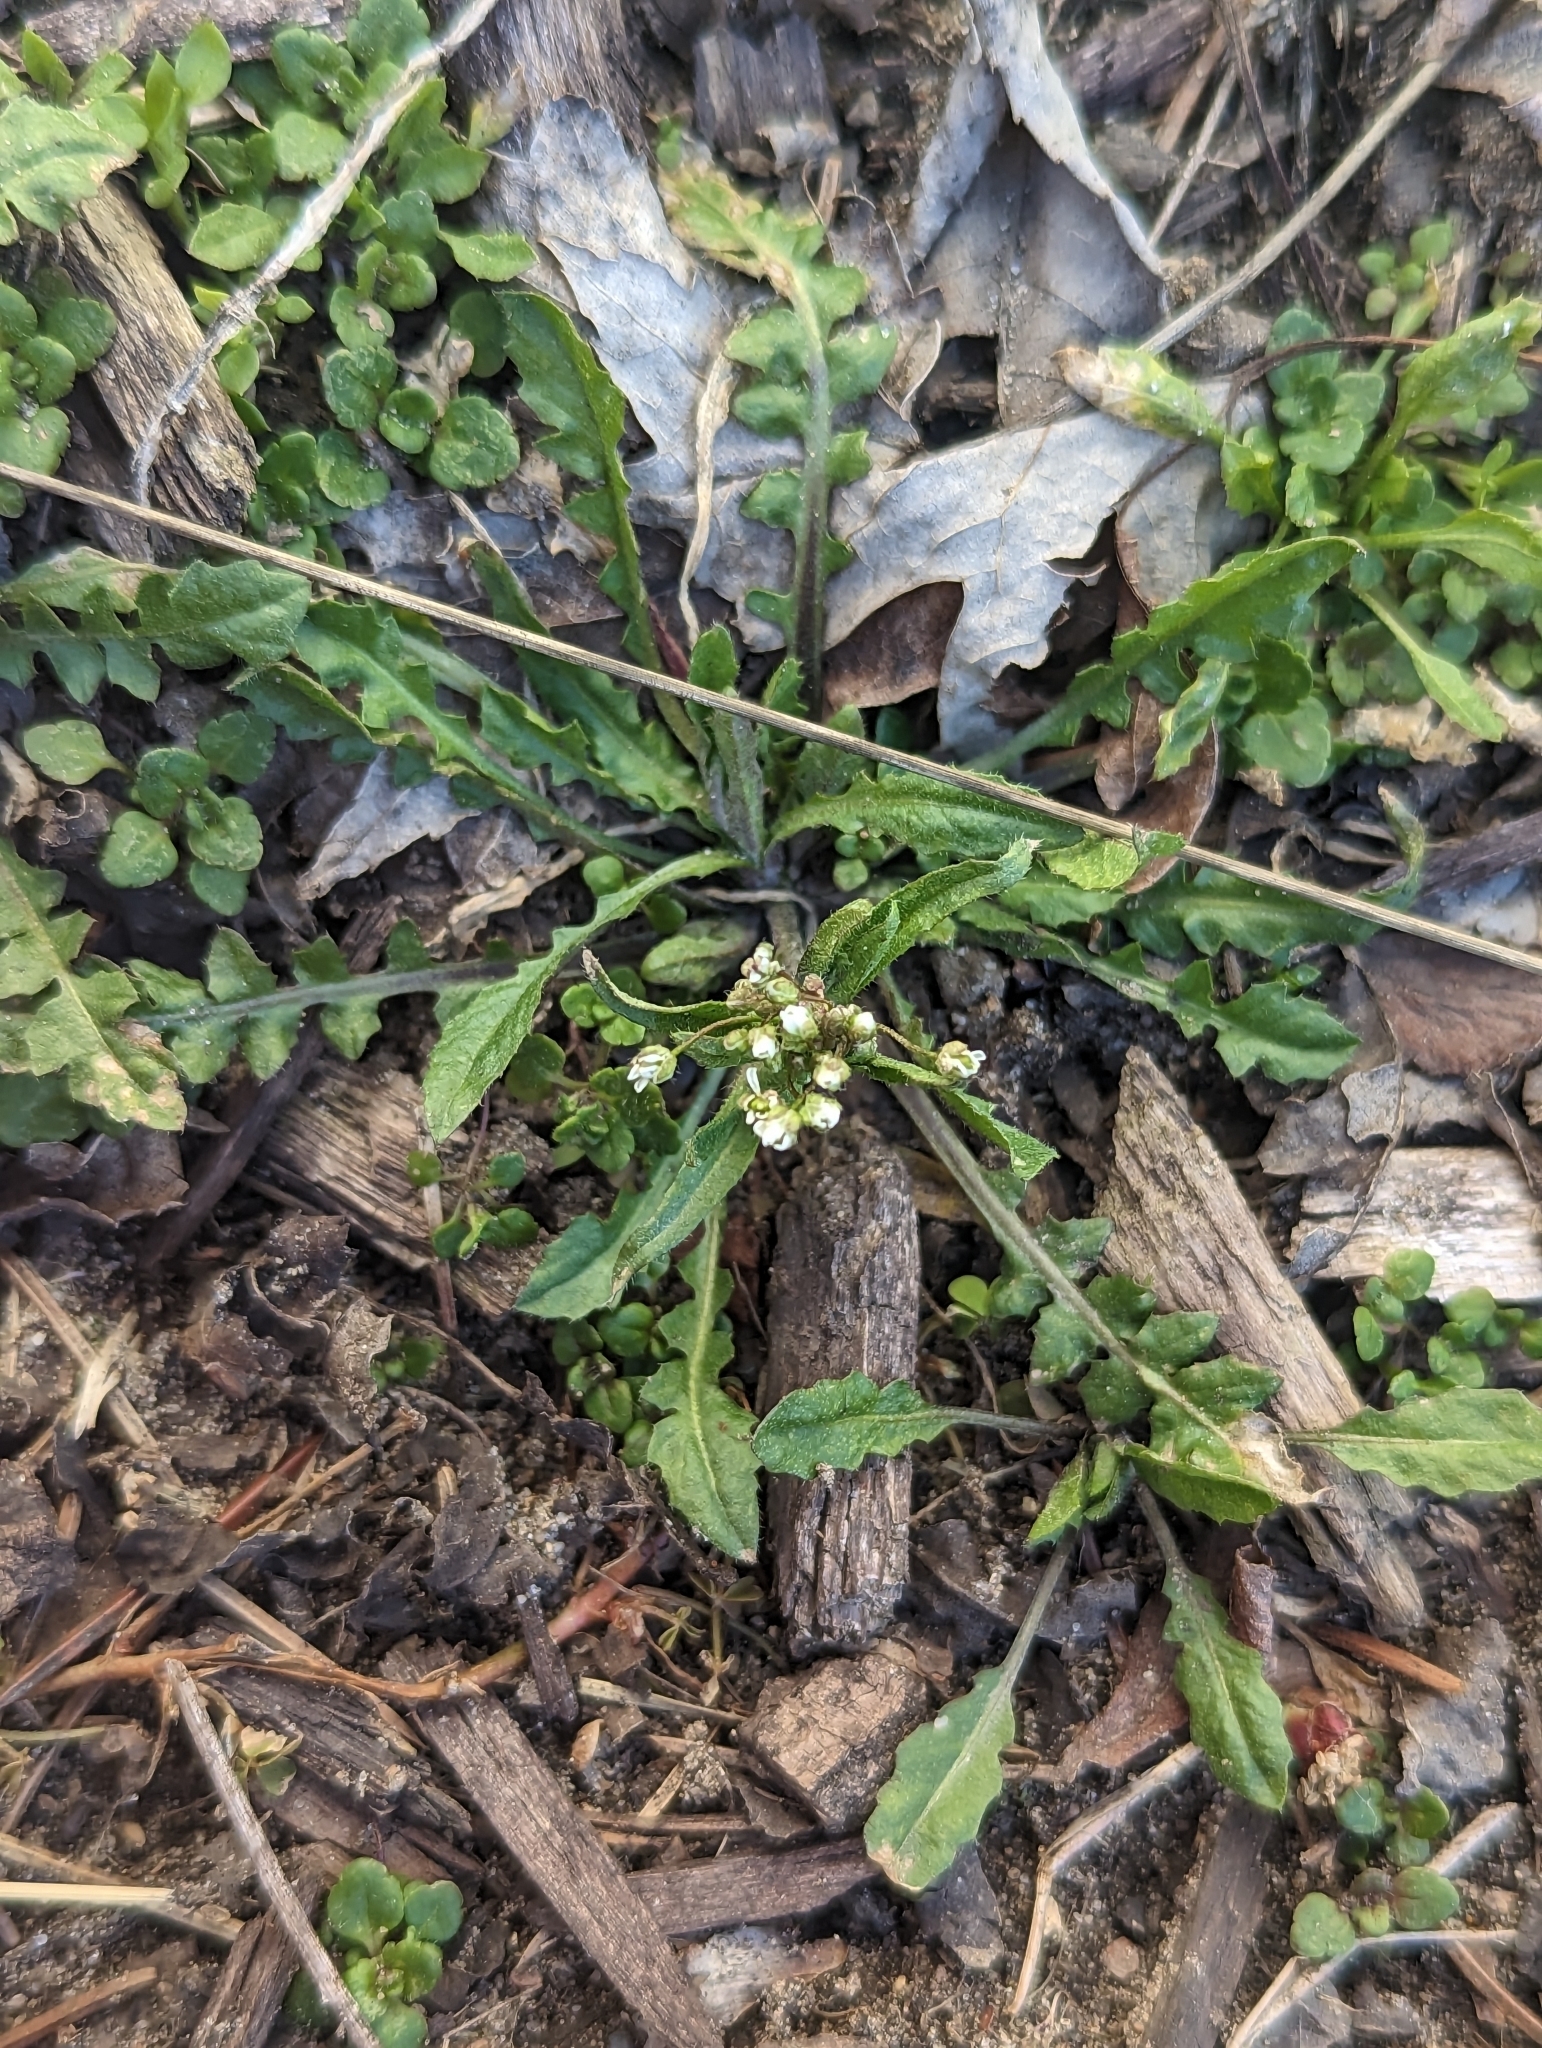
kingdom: Plantae
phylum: Tracheophyta
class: Magnoliopsida
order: Brassicales
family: Brassicaceae
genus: Capsella
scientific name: Capsella bursa-pastoris
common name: Shepherd's purse
